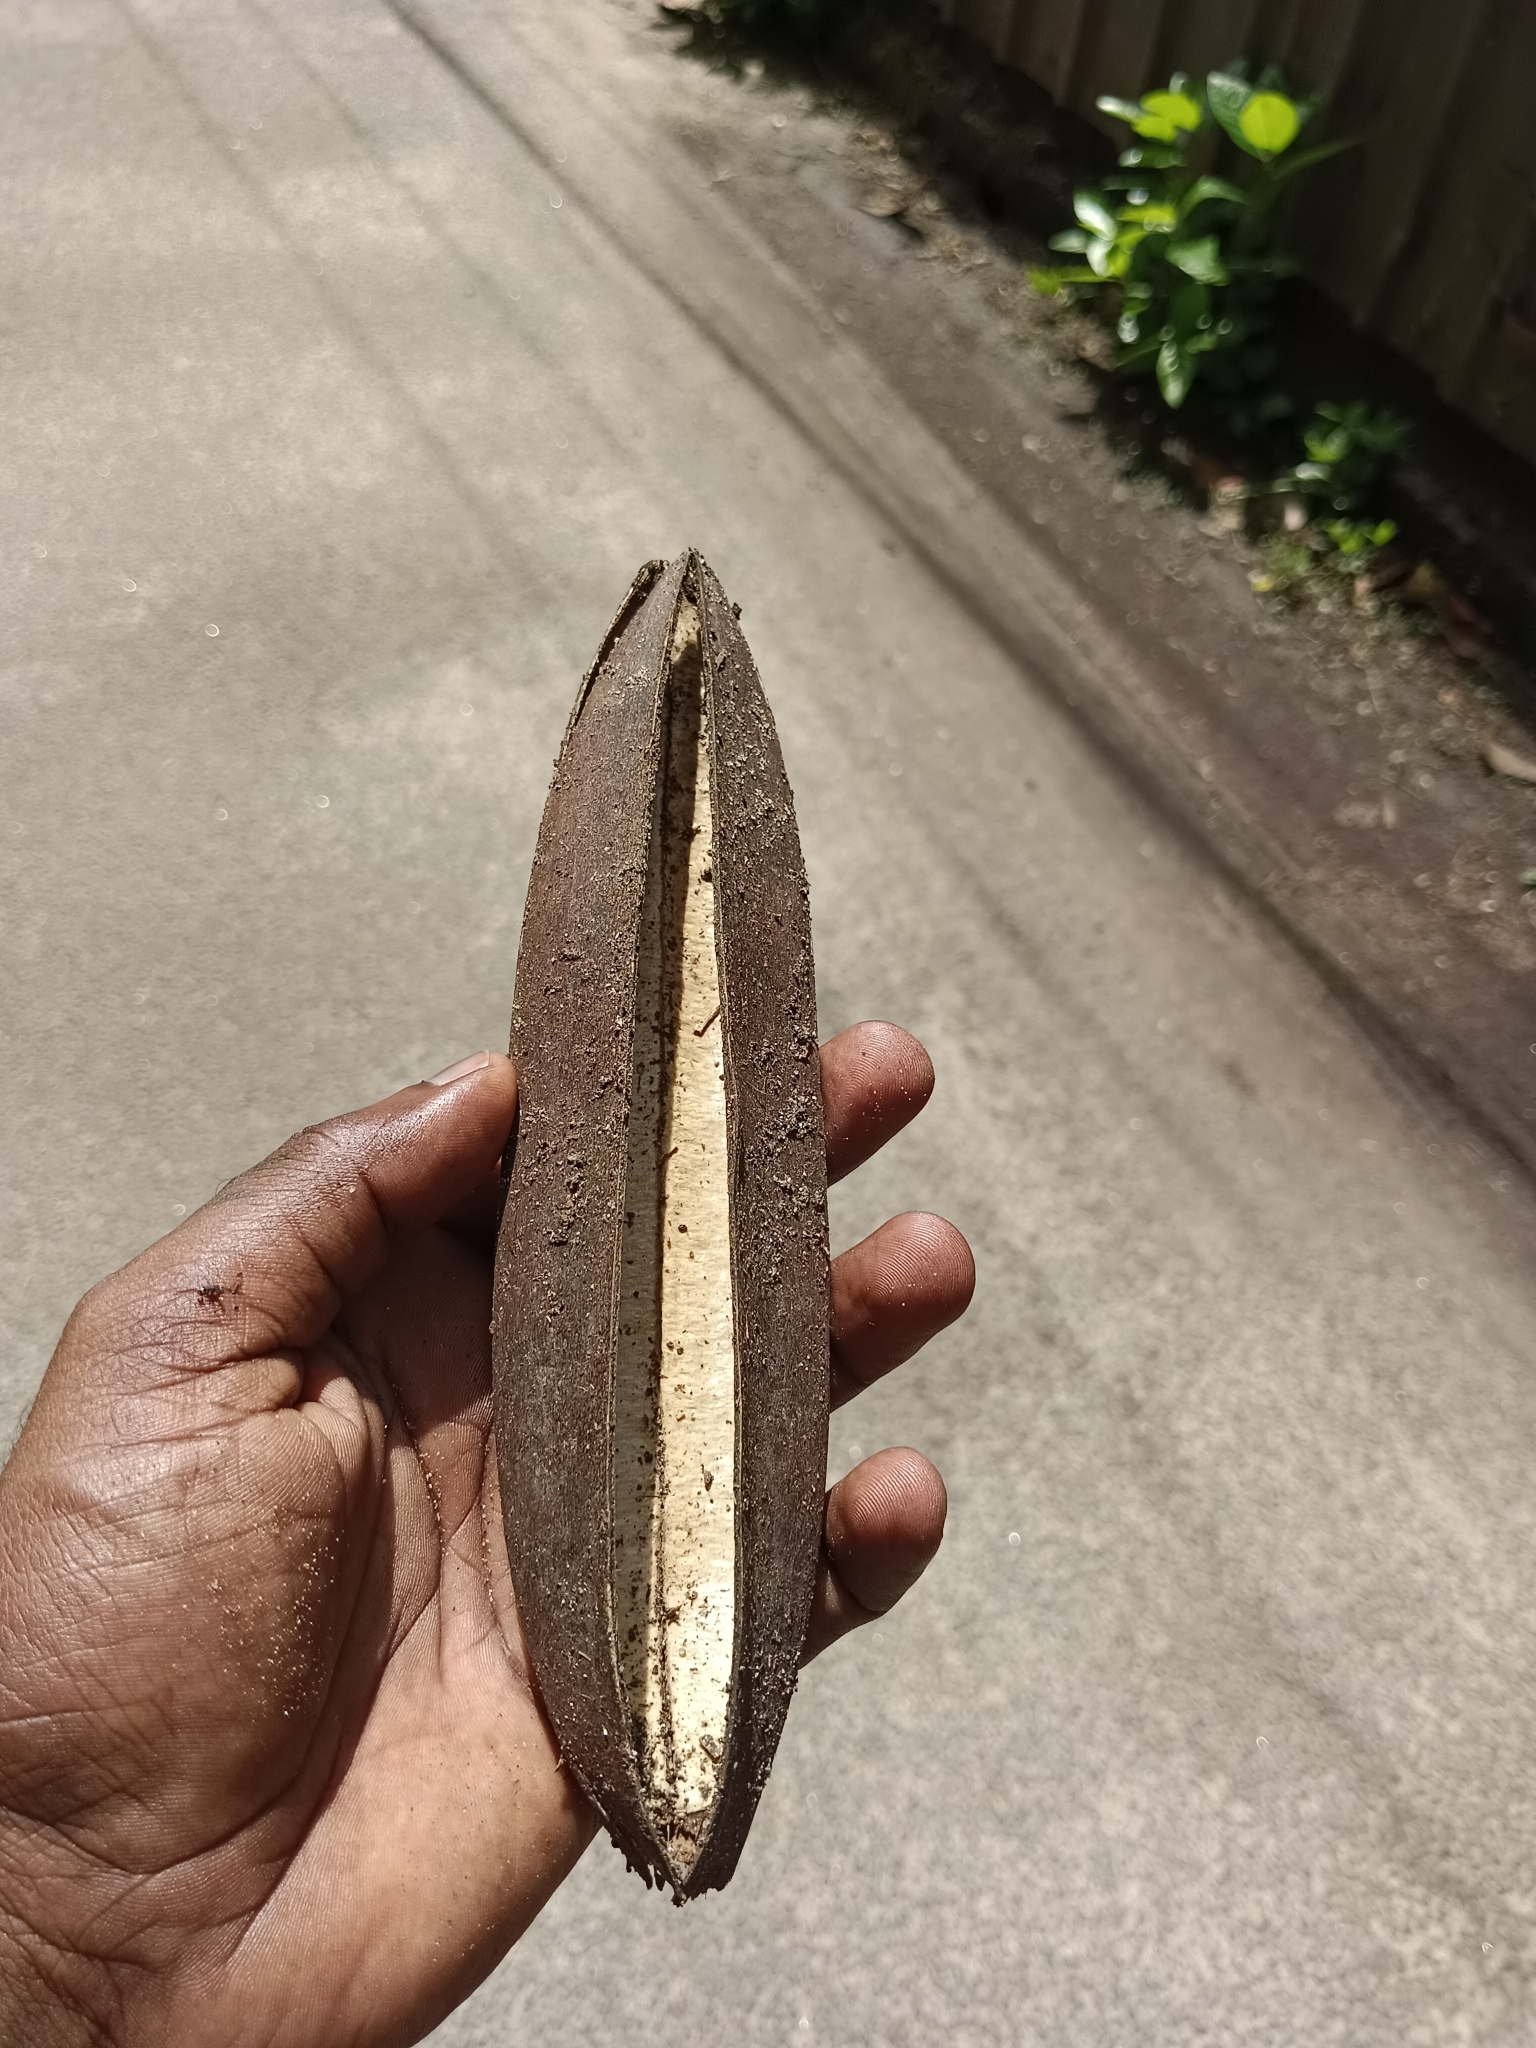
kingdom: Plantae
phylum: Tracheophyta
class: Magnoliopsida
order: Lamiales
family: Bignoniaceae
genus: Spathodea
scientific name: Spathodea campanulata
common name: African tuliptree
